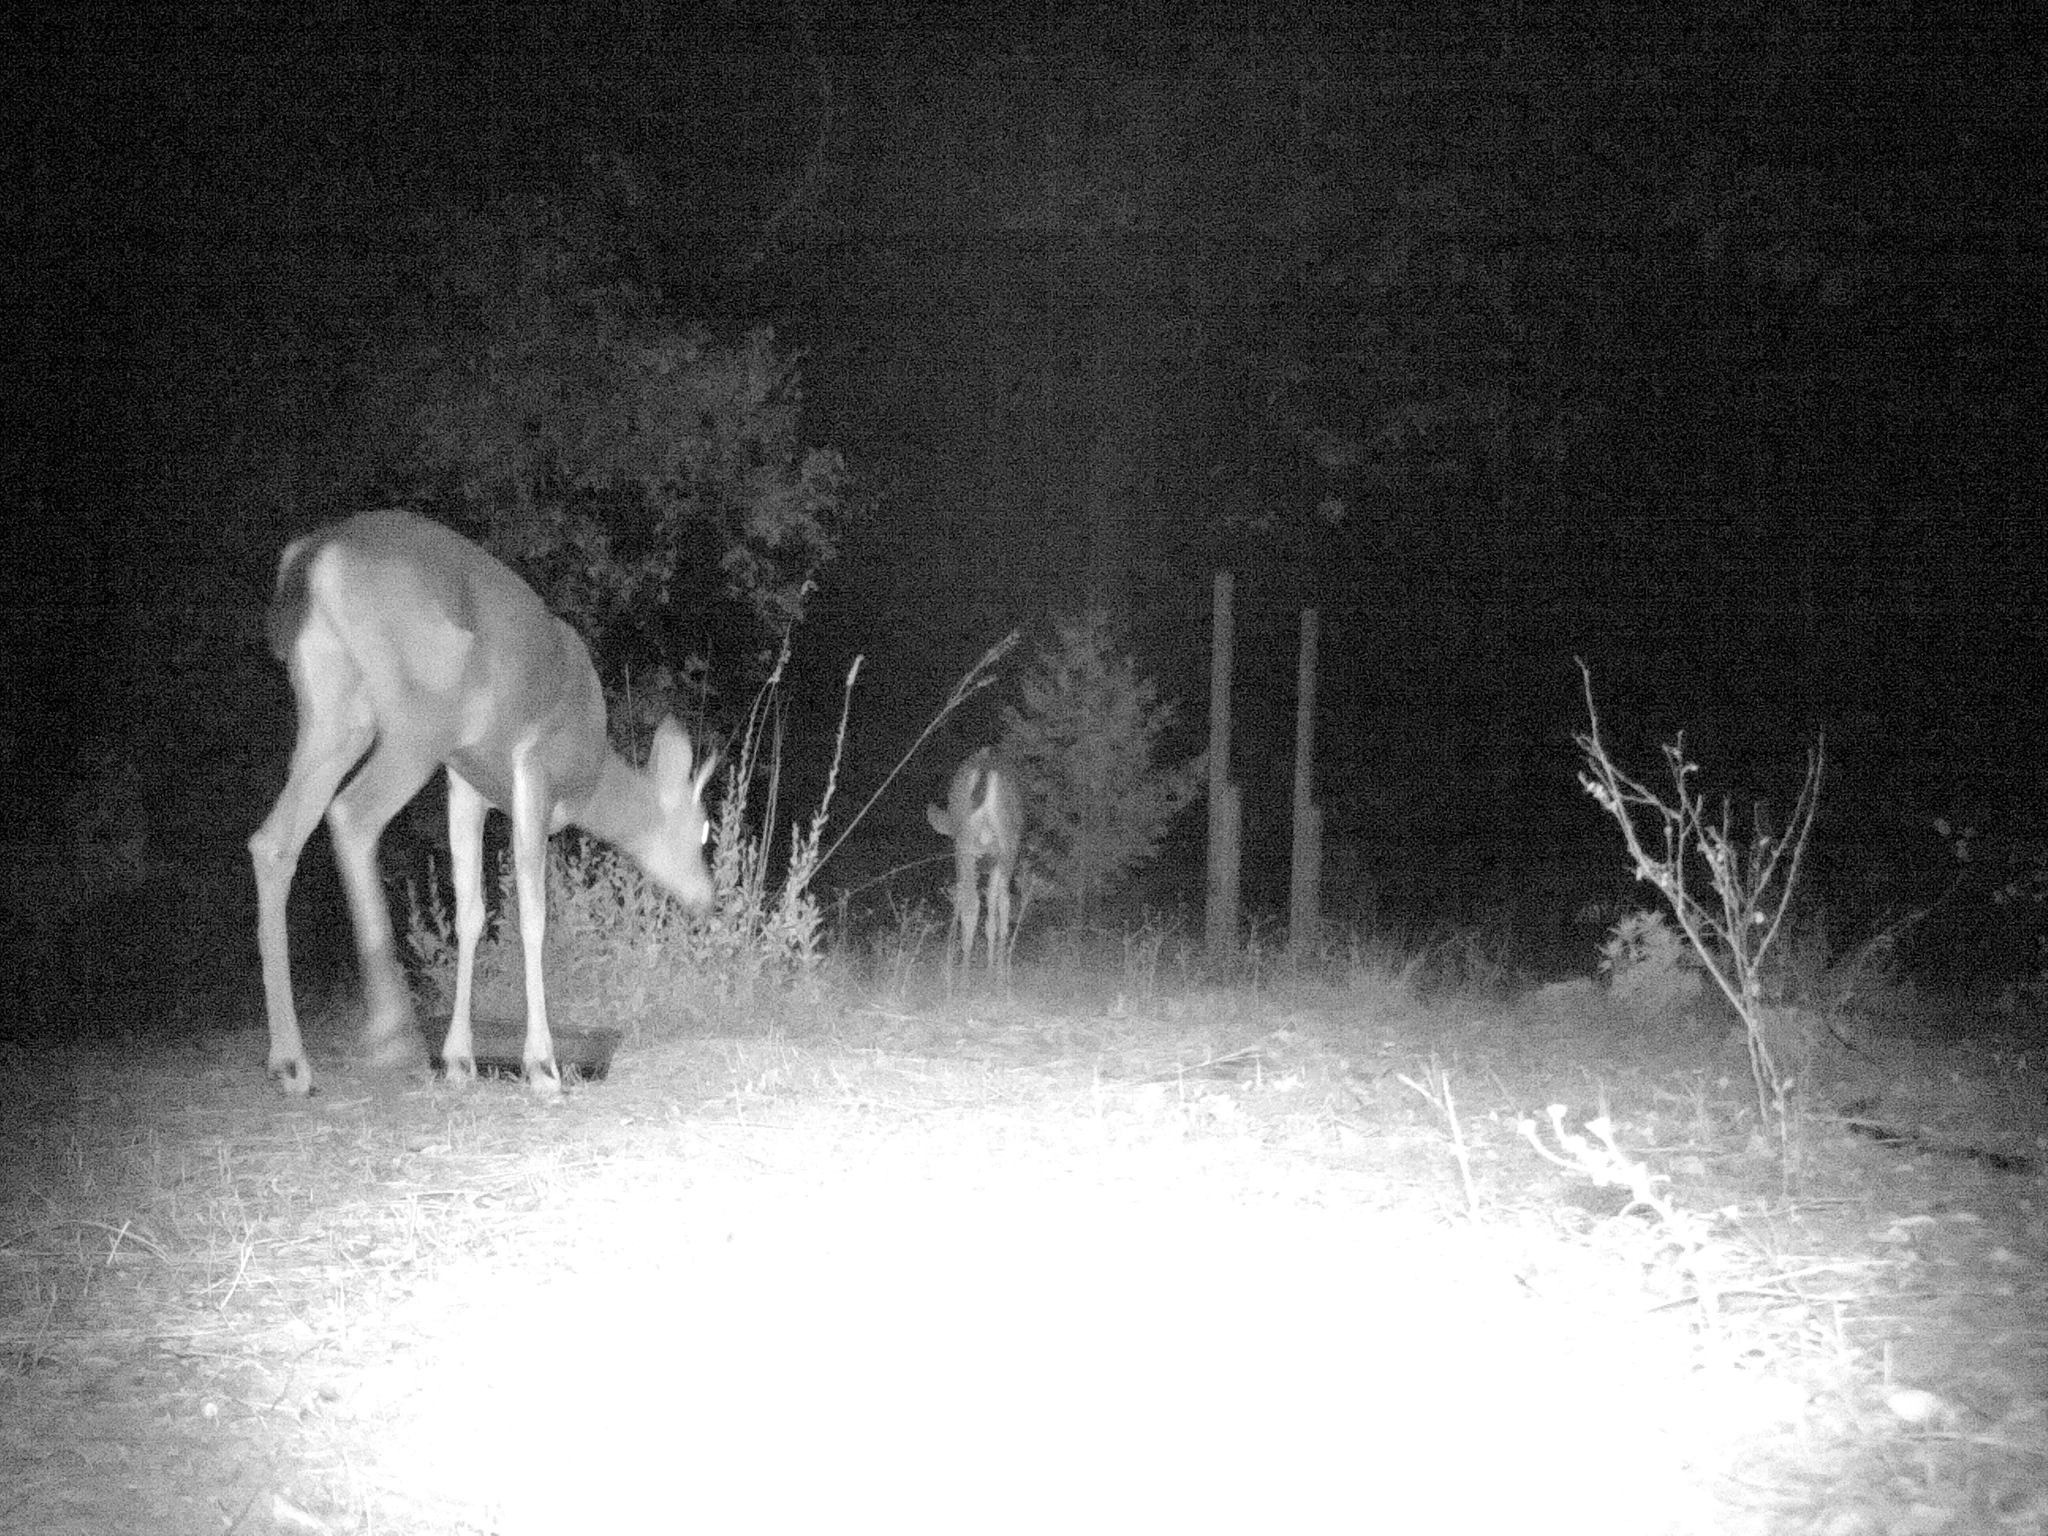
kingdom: Animalia
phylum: Chordata
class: Mammalia
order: Artiodactyla
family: Cervidae
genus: Odocoileus
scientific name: Odocoileus hemionus
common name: Mule deer
